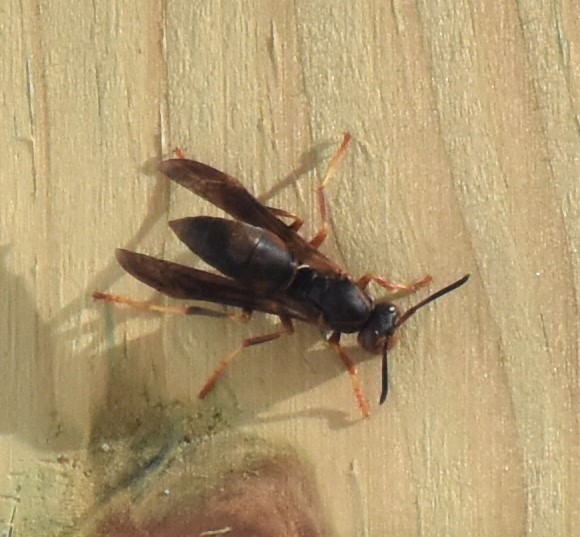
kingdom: Animalia
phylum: Arthropoda
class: Insecta
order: Hymenoptera
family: Eumenidae
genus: Polistes
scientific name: Polistes fuscatus
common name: Dark paper wasp
